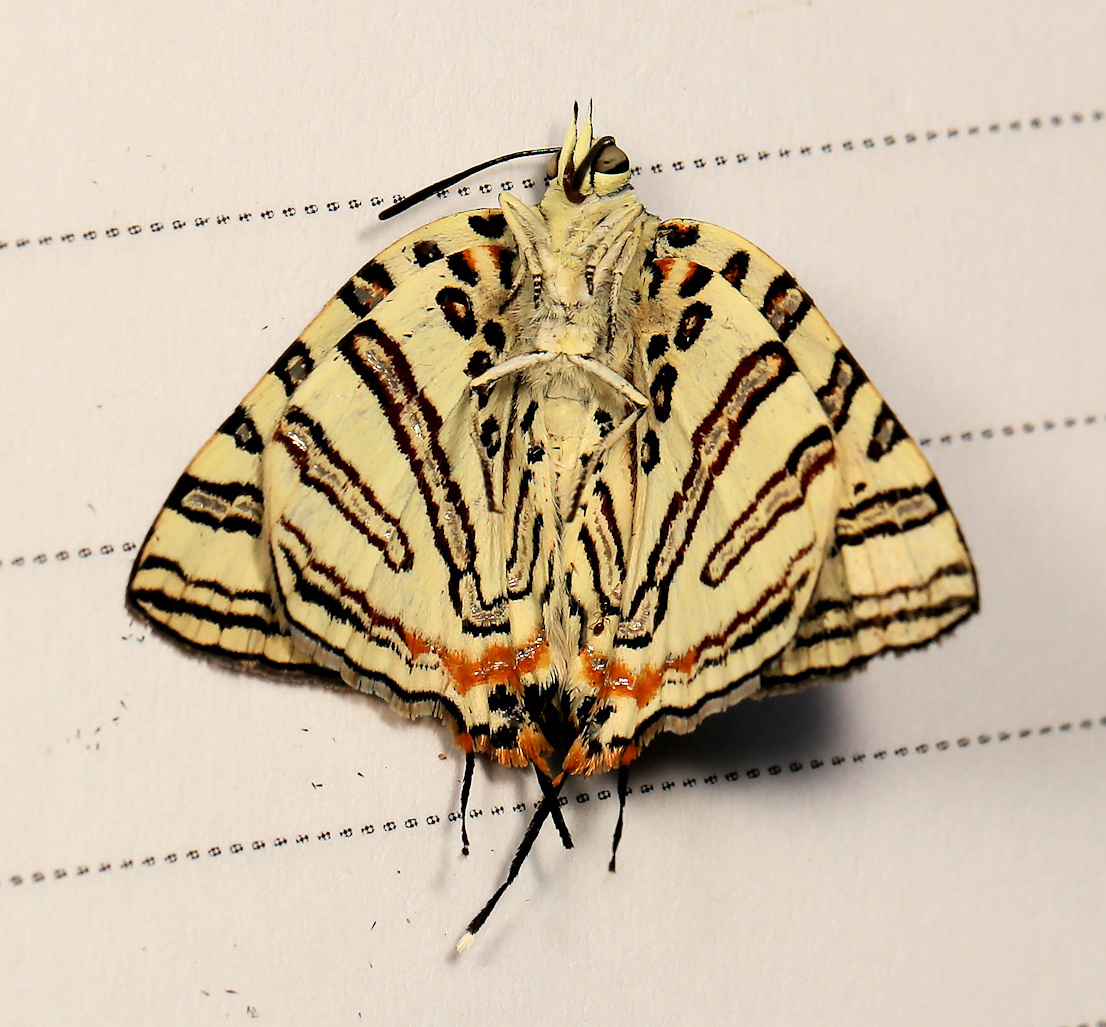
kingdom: Animalia
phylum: Arthropoda
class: Insecta
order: Lepidoptera
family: Lycaenidae
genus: Spindasis
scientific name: Spindasis natalensis
